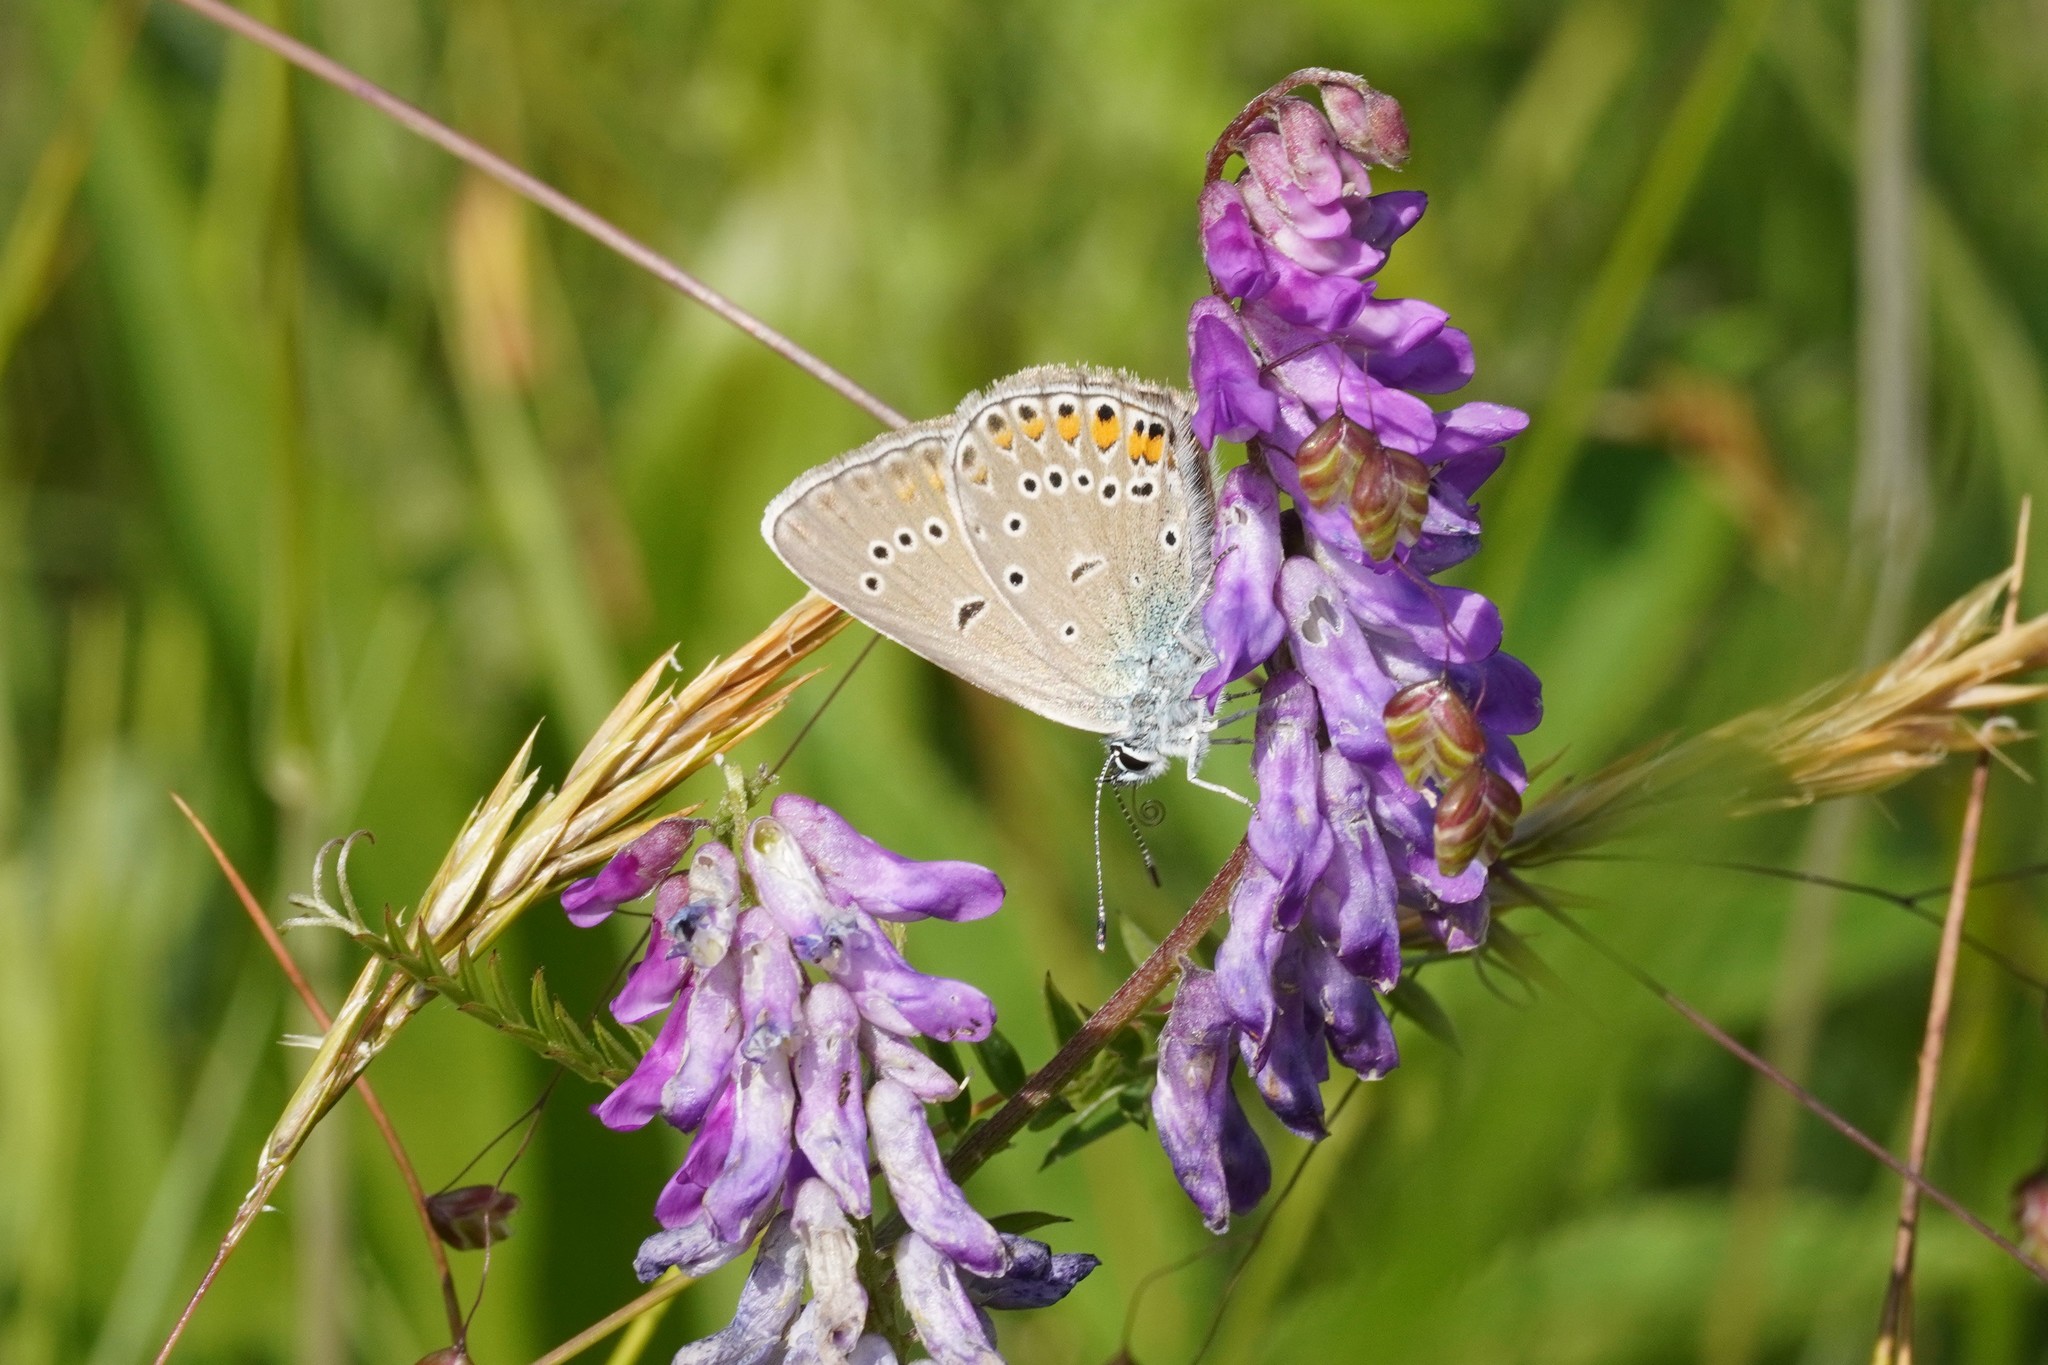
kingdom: Animalia
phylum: Arthropoda
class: Insecta
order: Lepidoptera
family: Lycaenidae
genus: Plebejus
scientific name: Plebejus amanda
